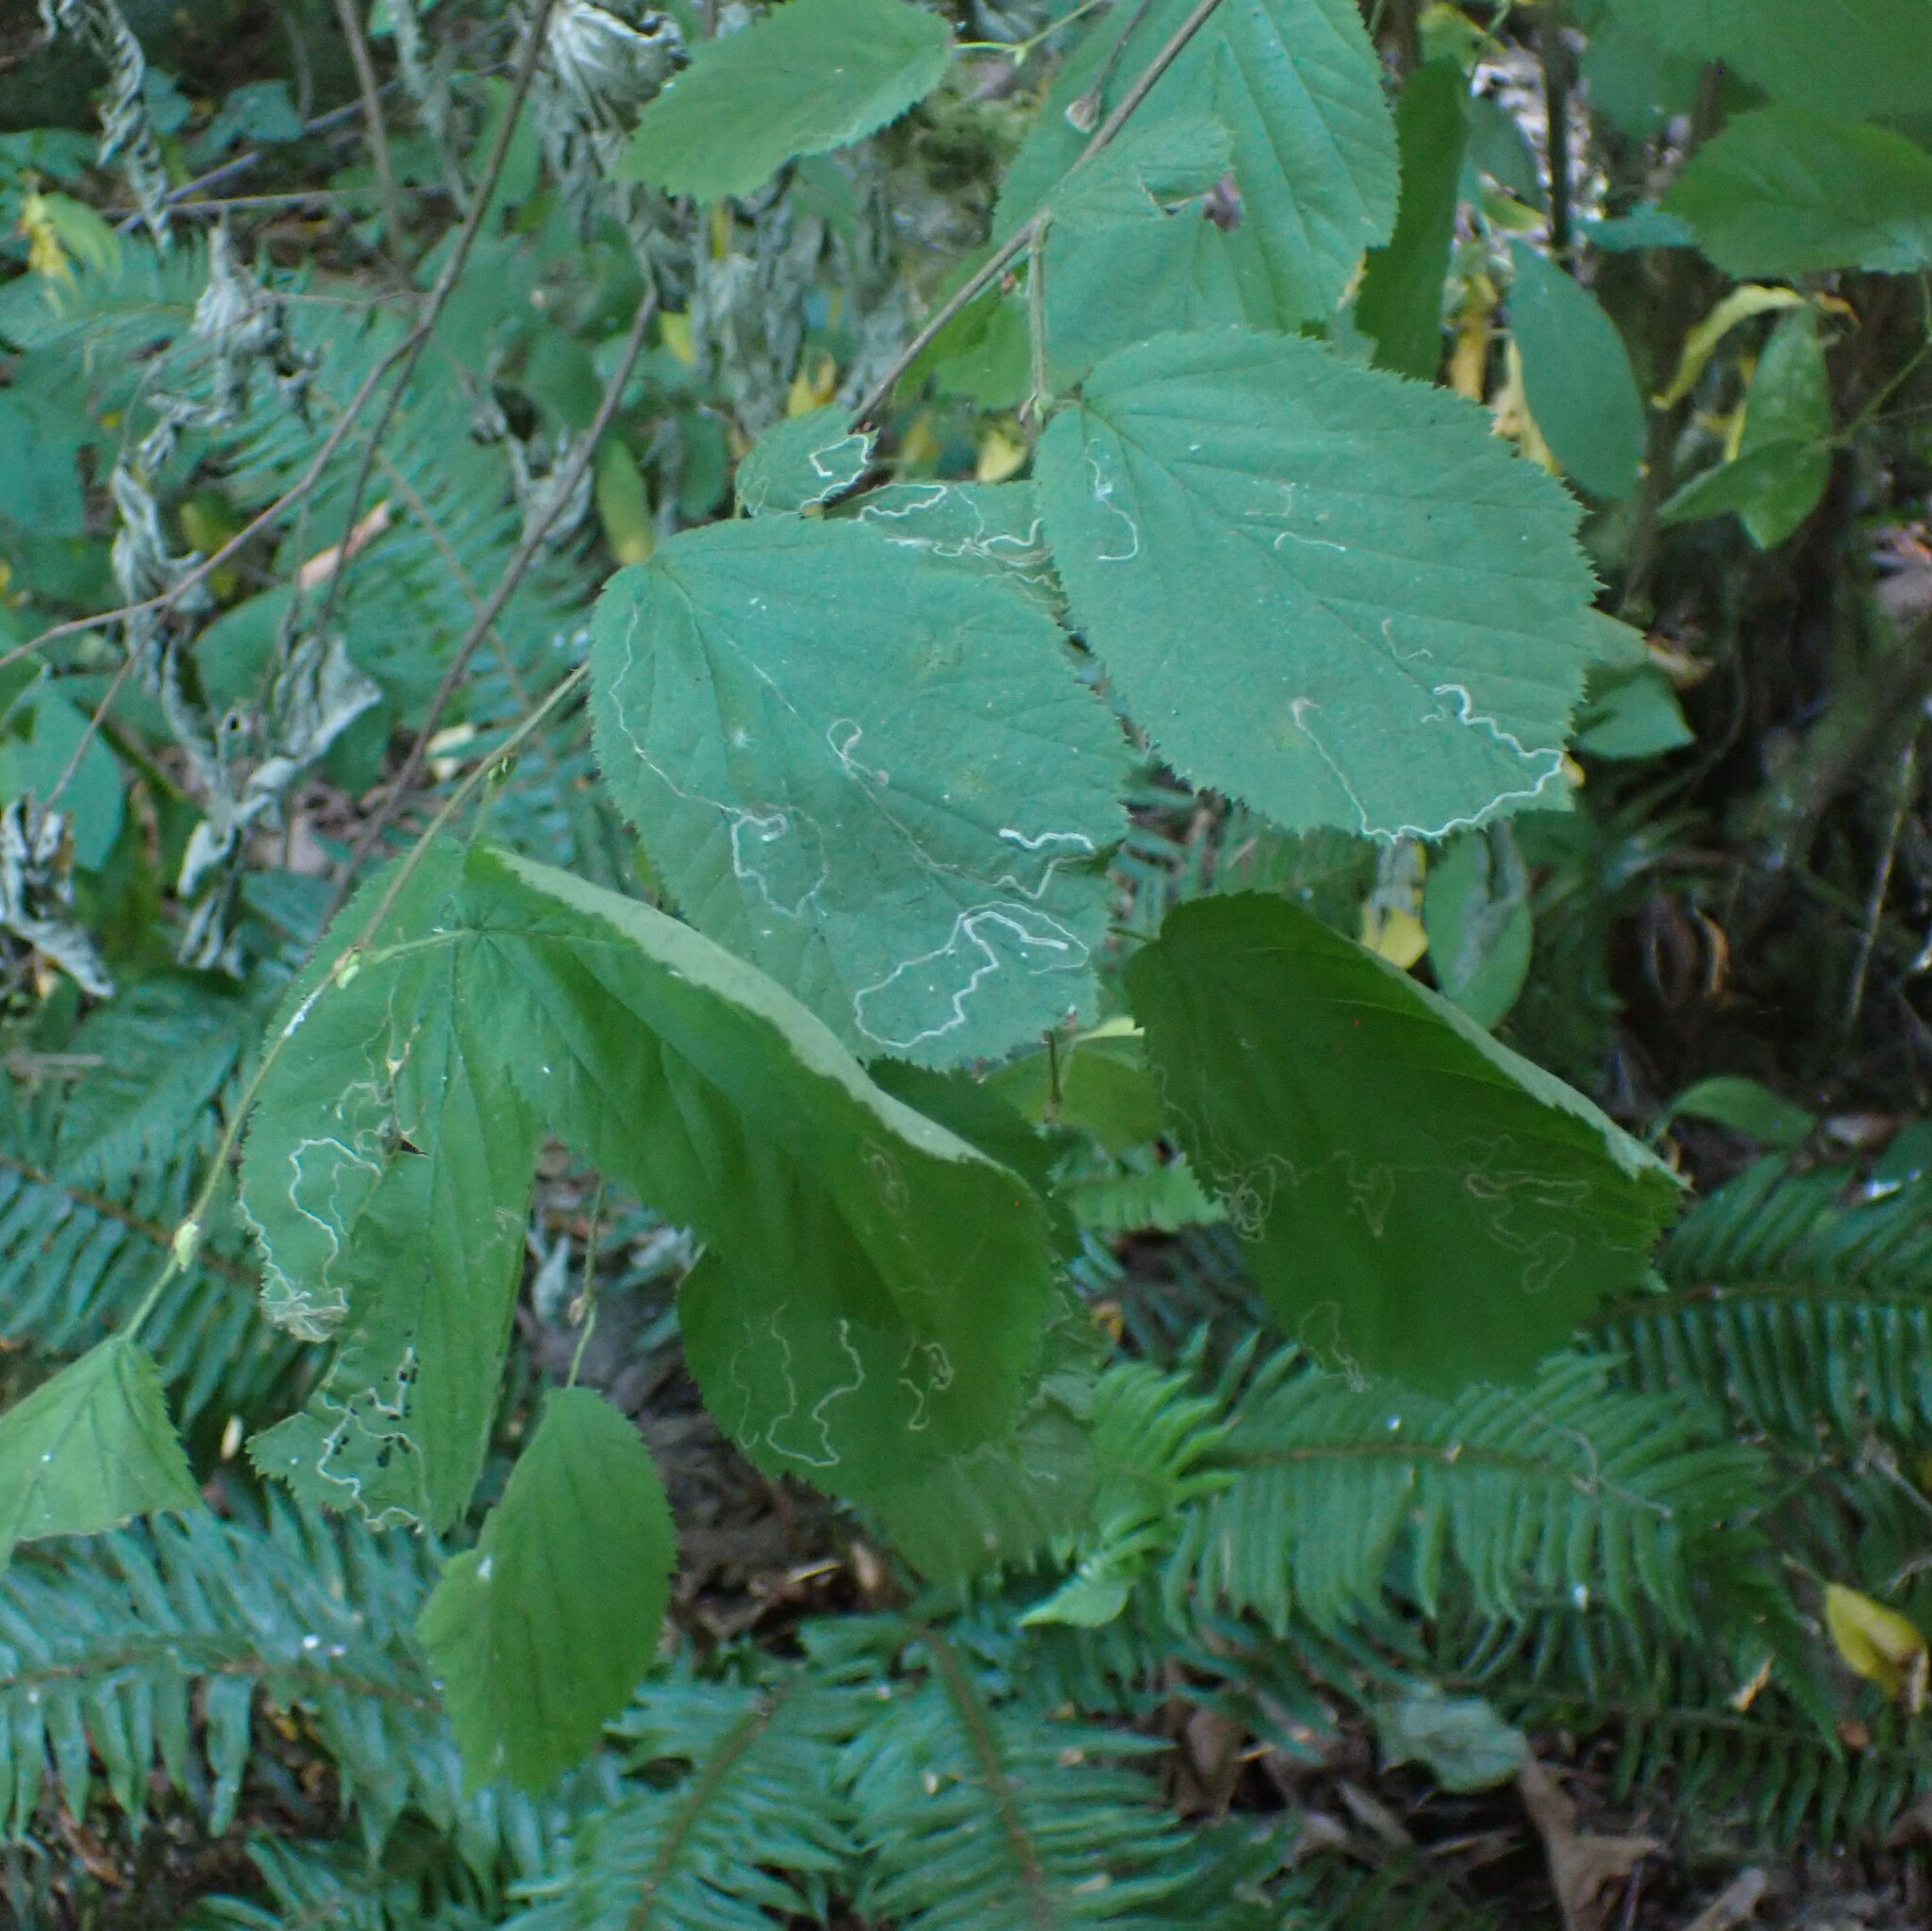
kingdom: Animalia
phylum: Arthropoda
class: Insecta
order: Lepidoptera
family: Nepticulidae
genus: Stigmella
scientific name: Stigmella microtheriella
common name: Nut-tree pigmy
